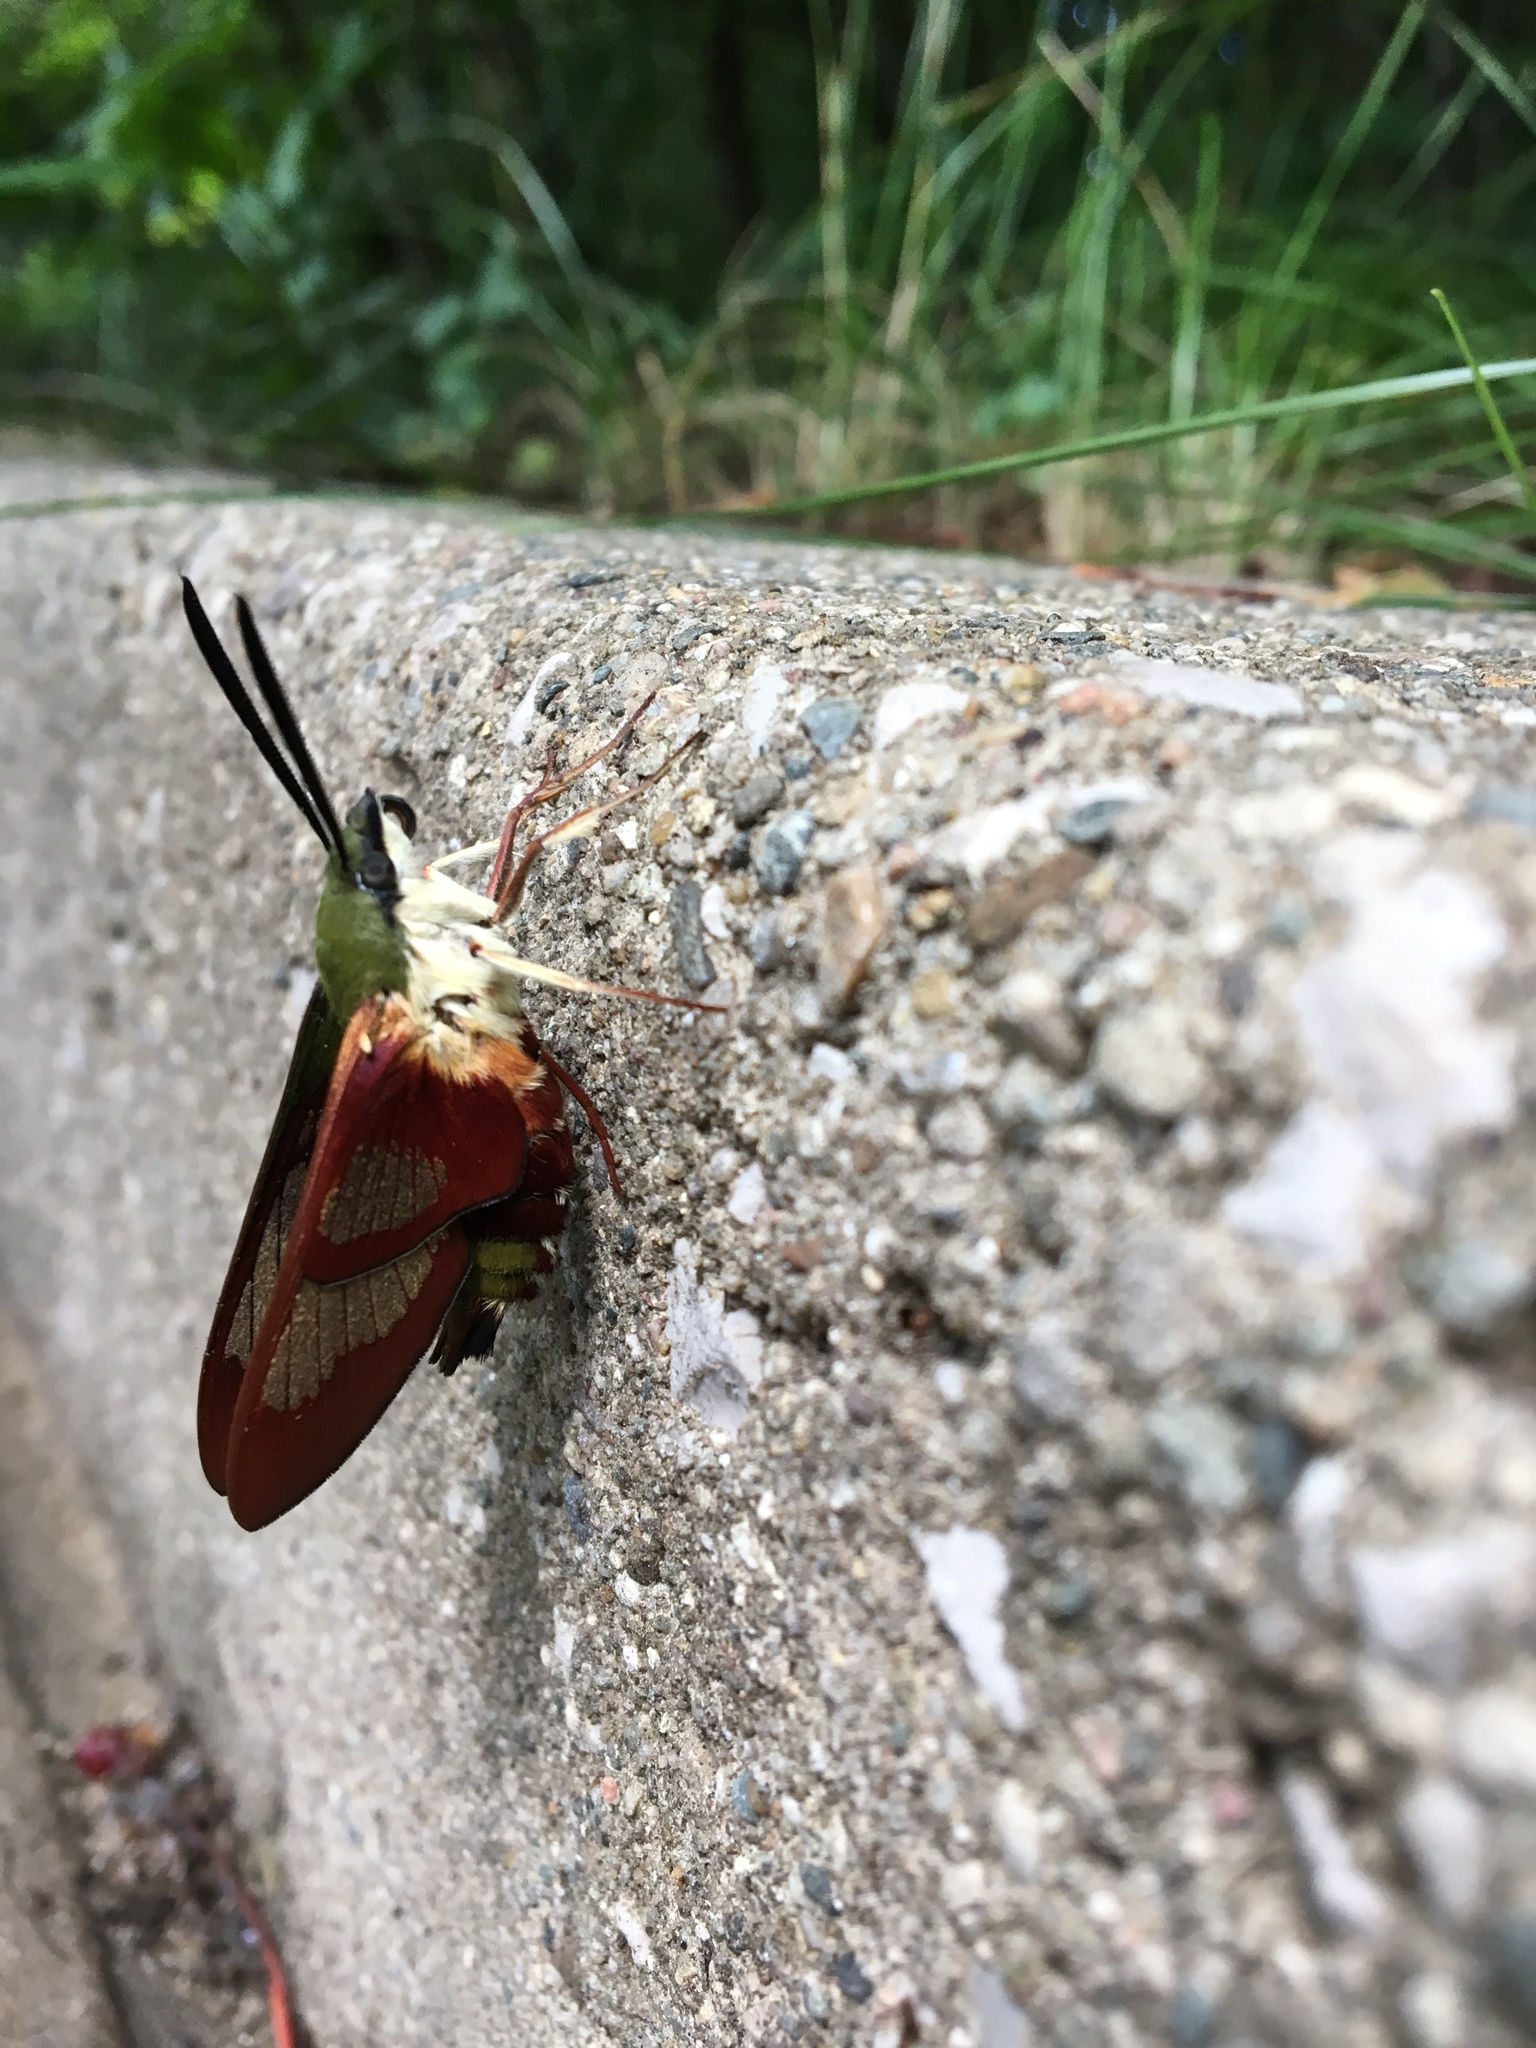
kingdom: Animalia
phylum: Arthropoda
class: Insecta
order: Lepidoptera
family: Sphingidae
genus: Hemaris
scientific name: Hemaris thysbe
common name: Common clear-wing
